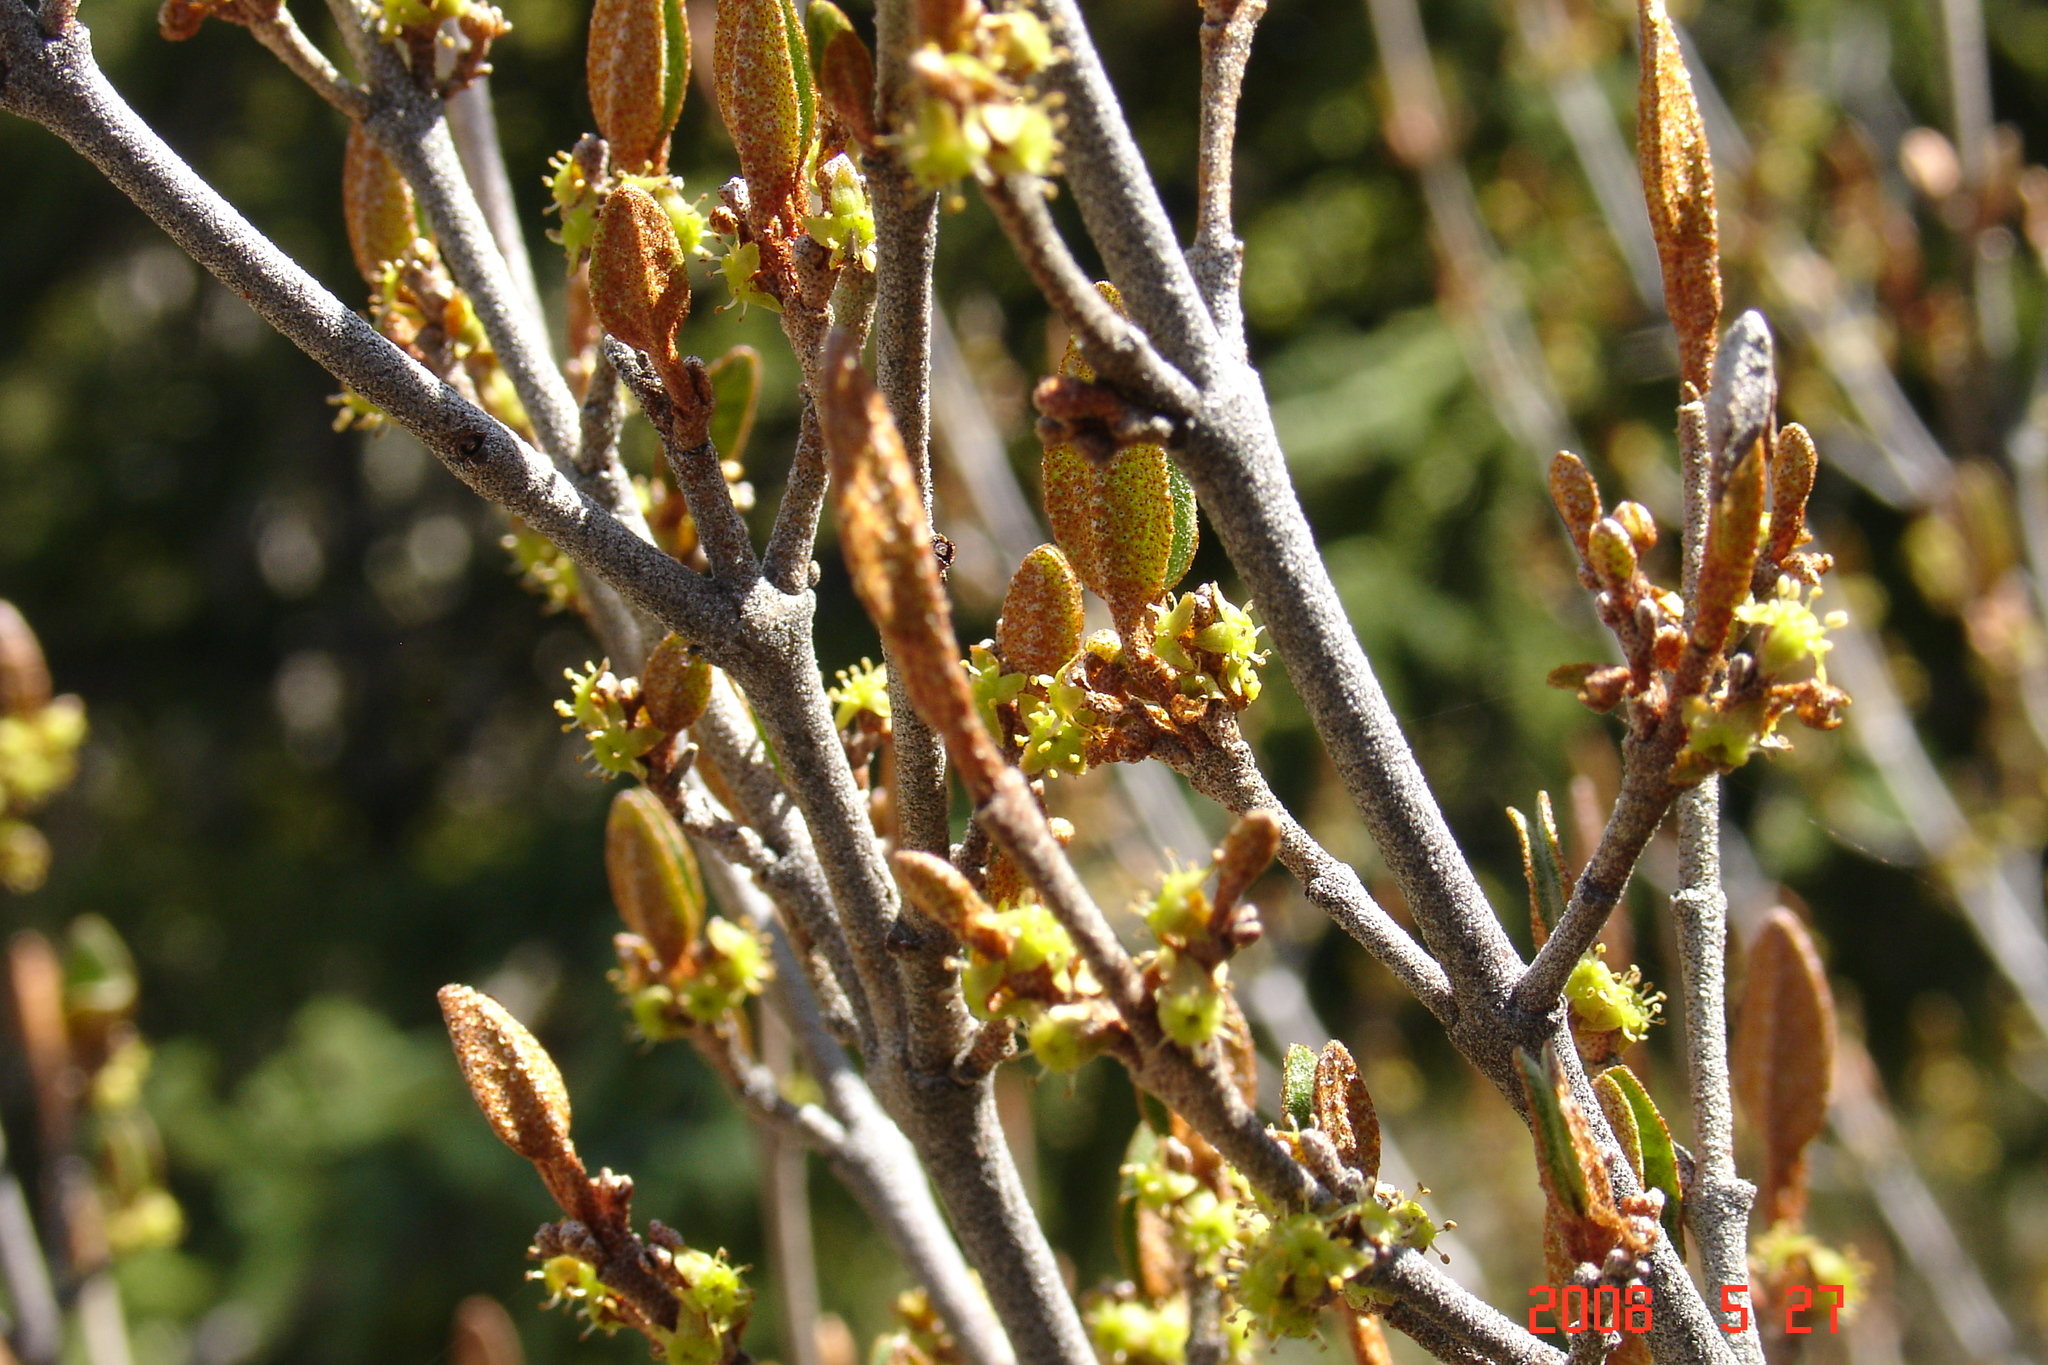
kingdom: Plantae
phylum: Tracheophyta
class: Magnoliopsida
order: Rosales
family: Elaeagnaceae
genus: Shepherdia
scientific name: Shepherdia canadensis
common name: Soapberry
